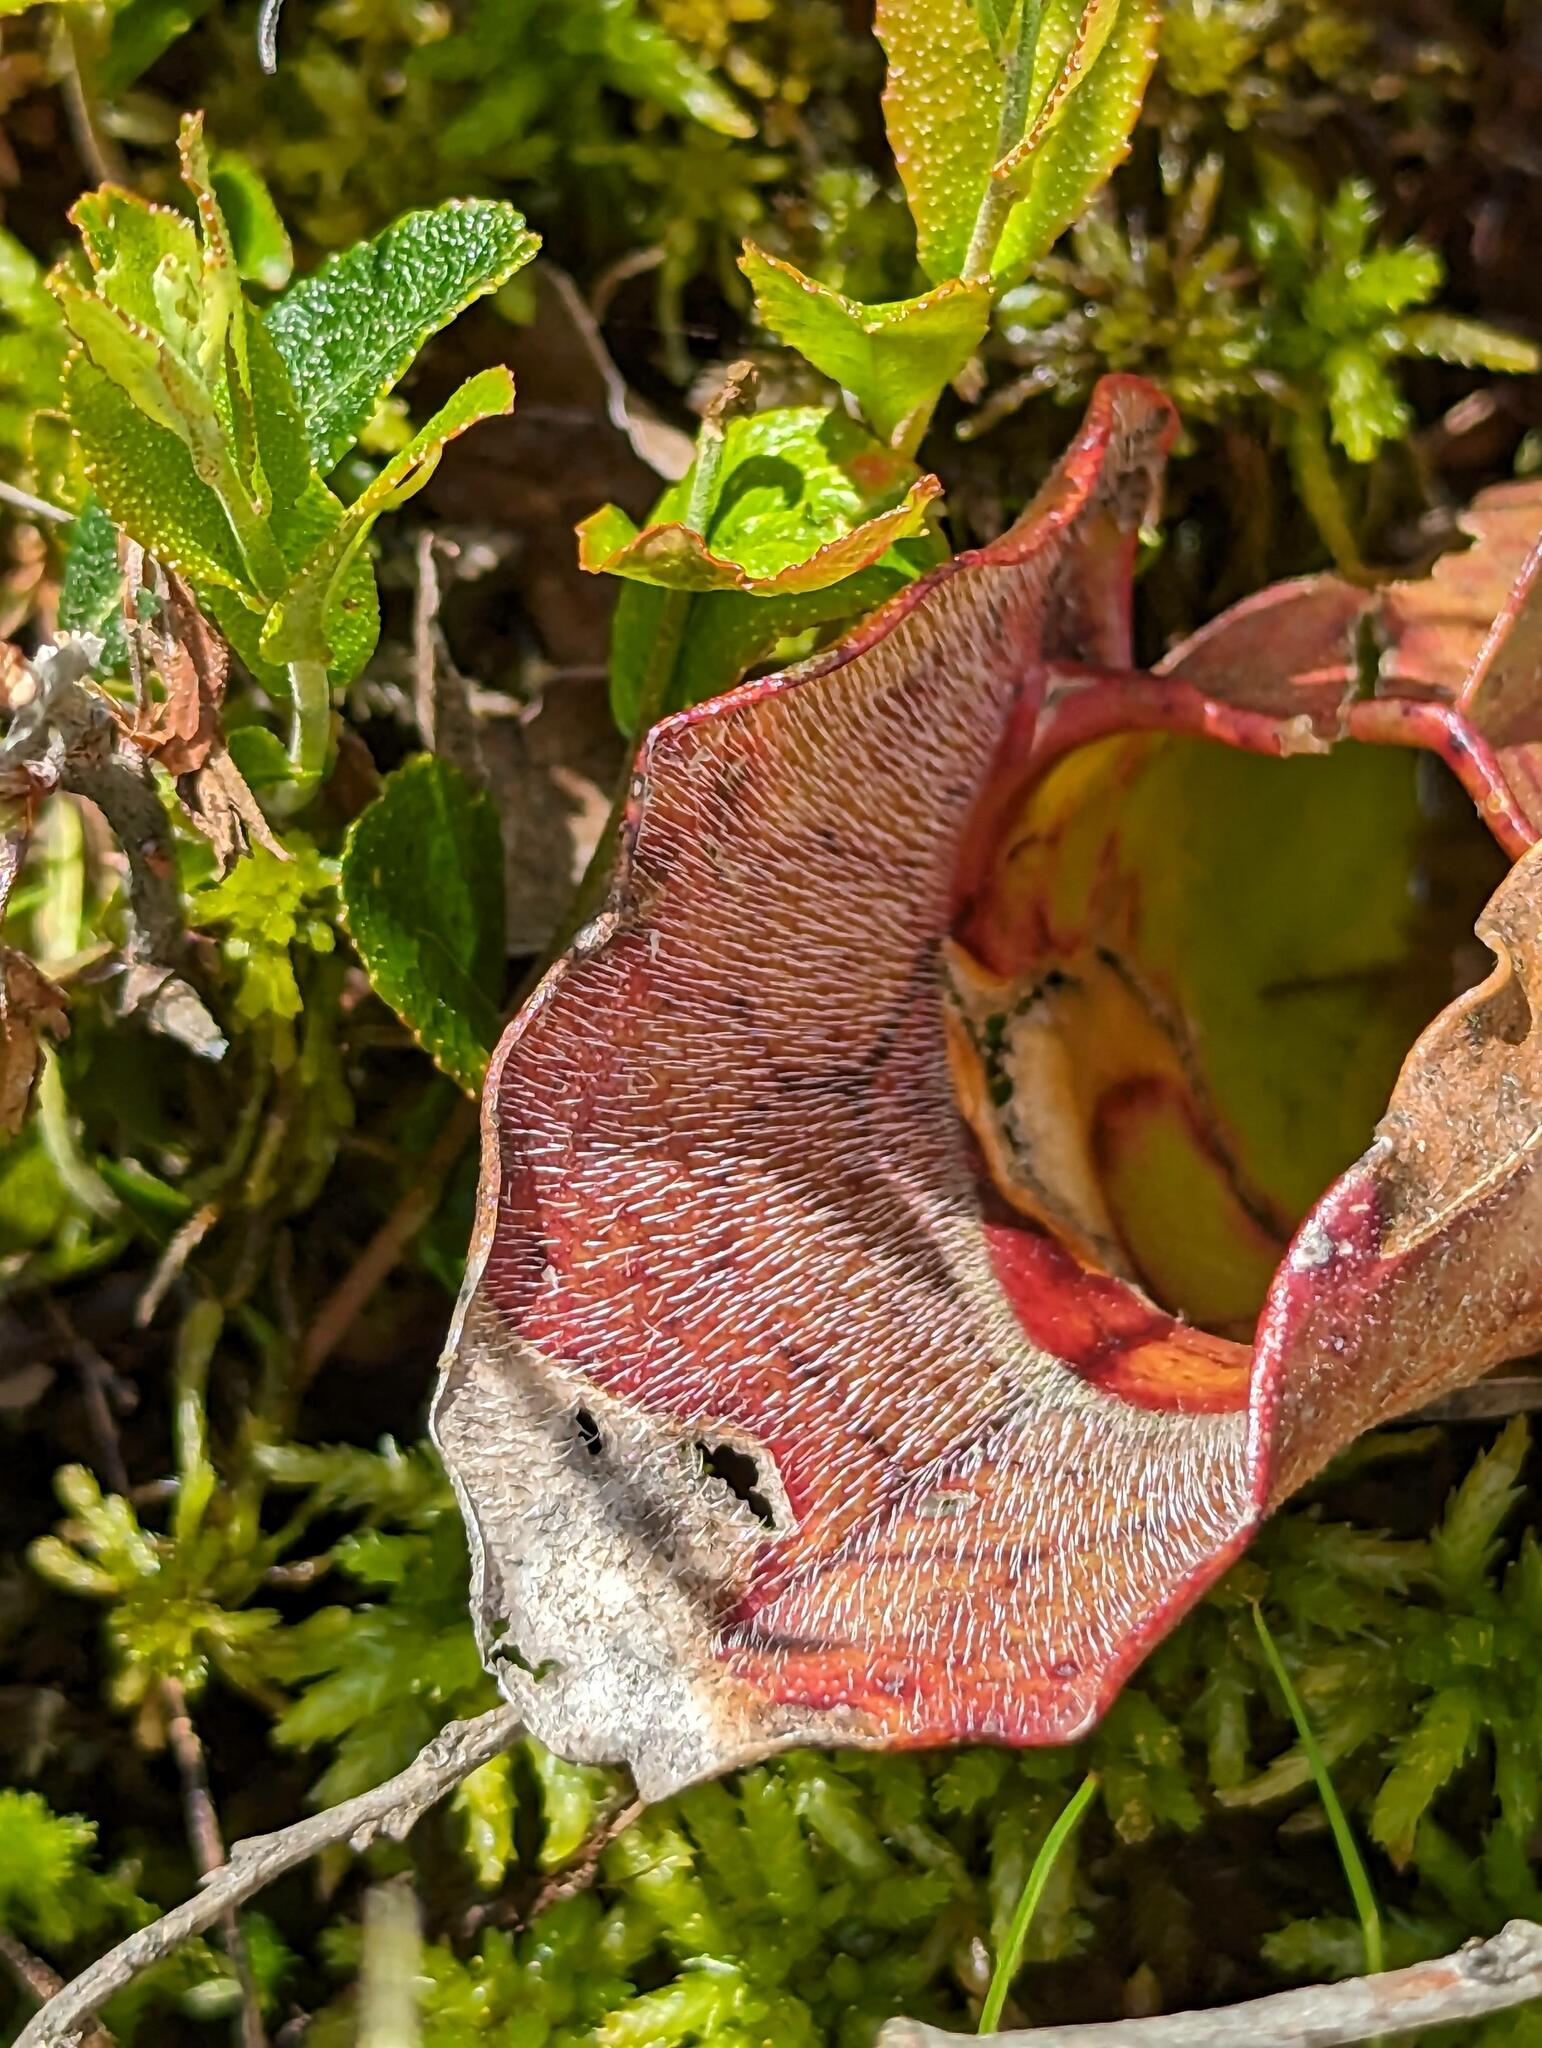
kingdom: Plantae
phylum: Tracheophyta
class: Magnoliopsida
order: Ericales
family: Sarraceniaceae
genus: Sarracenia
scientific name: Sarracenia purpurea
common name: Pitcherplant
